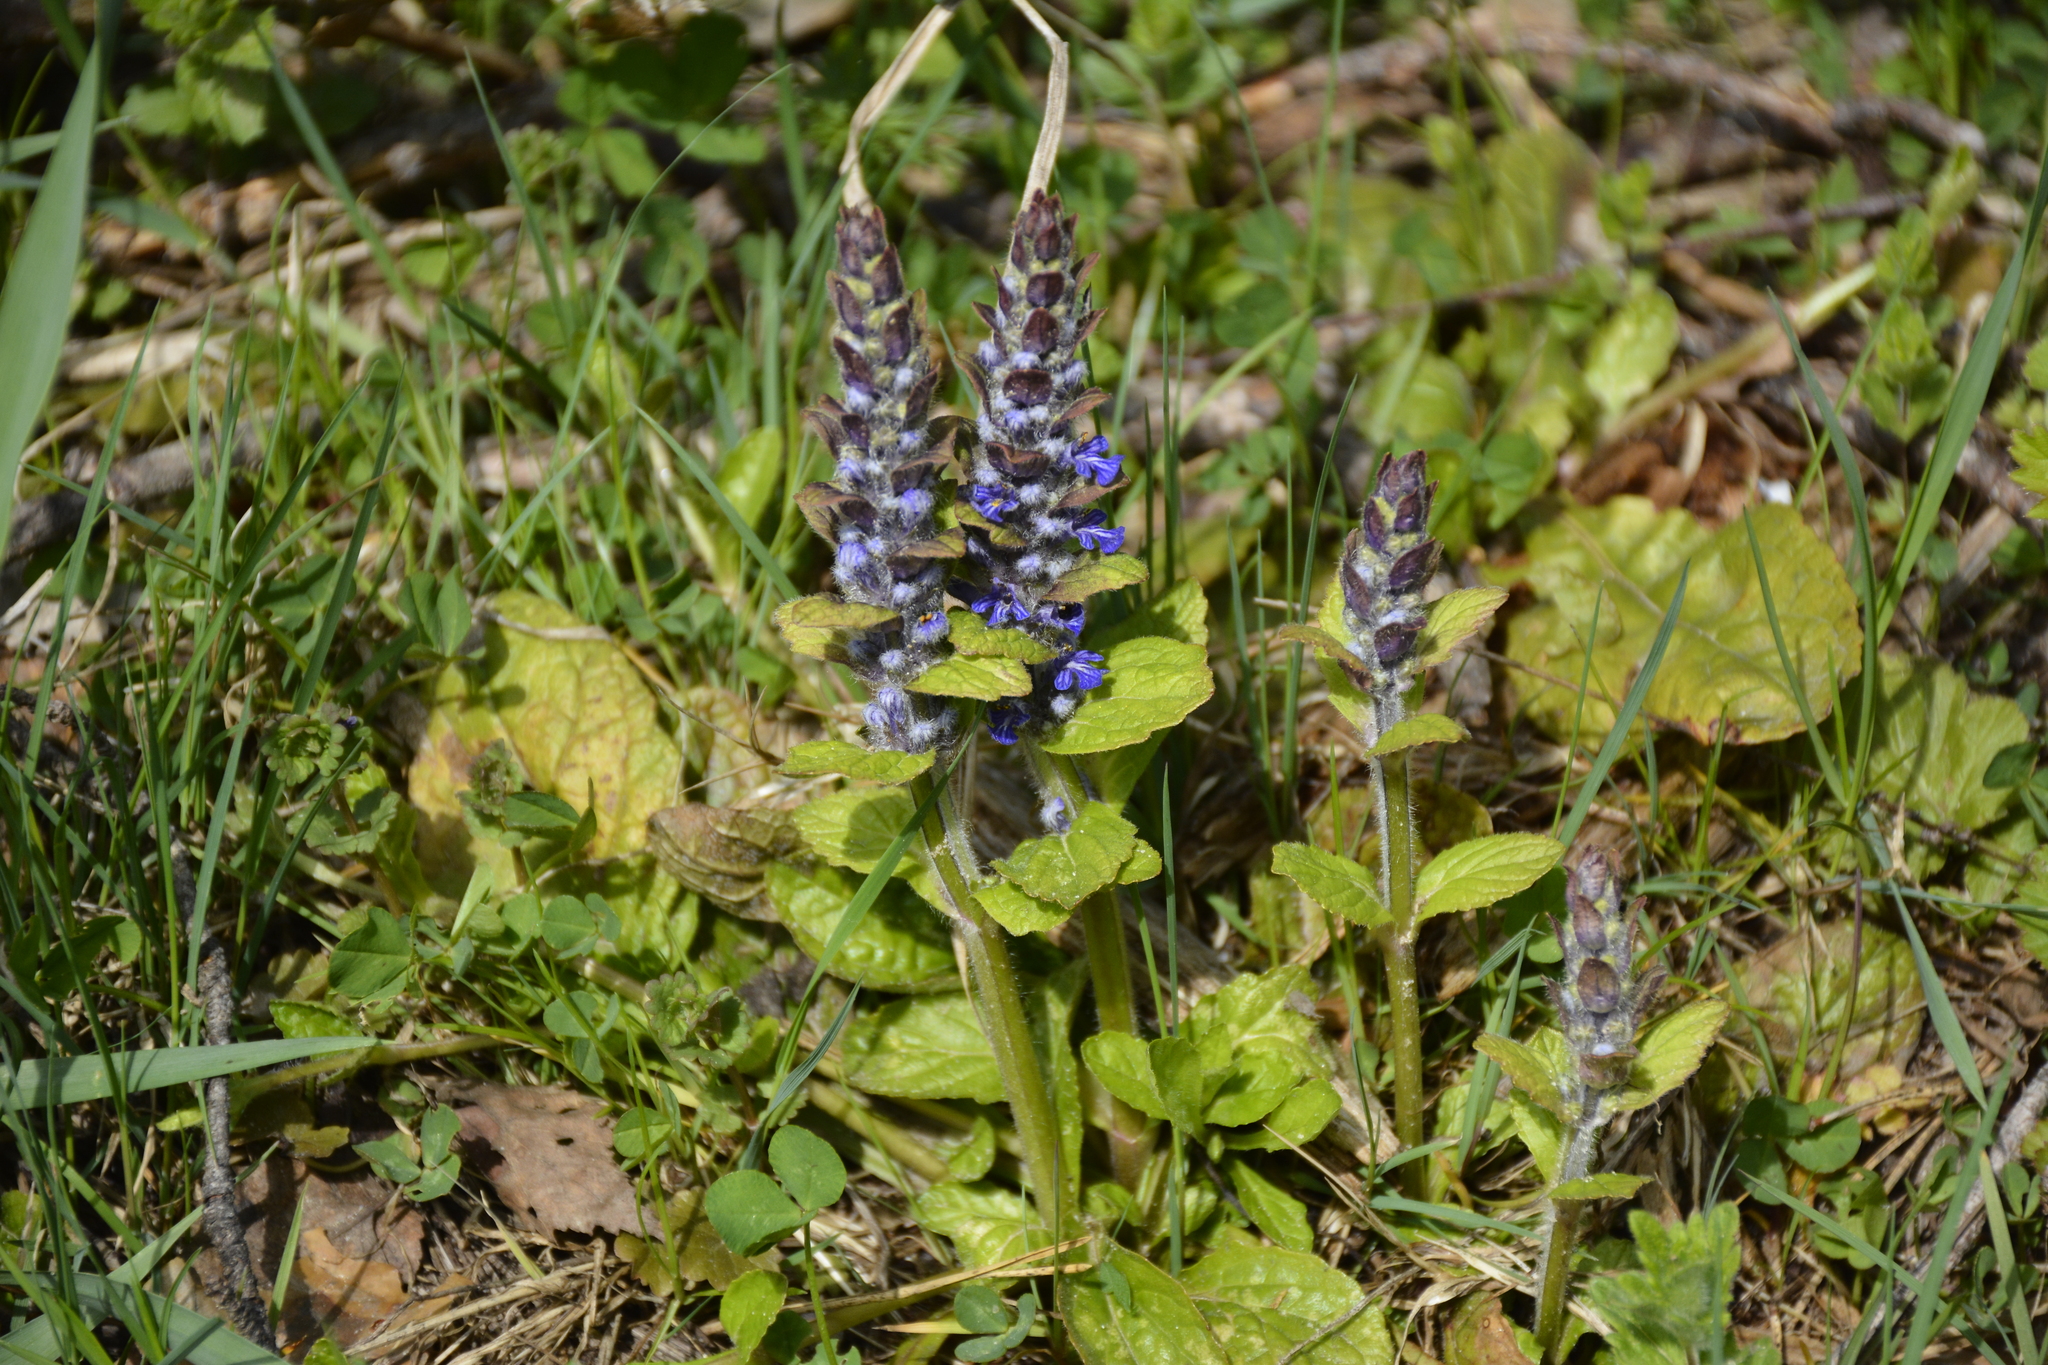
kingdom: Plantae
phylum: Tracheophyta
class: Magnoliopsida
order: Lamiales
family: Lamiaceae
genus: Ajuga
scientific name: Ajuga reptans
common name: Bugle
